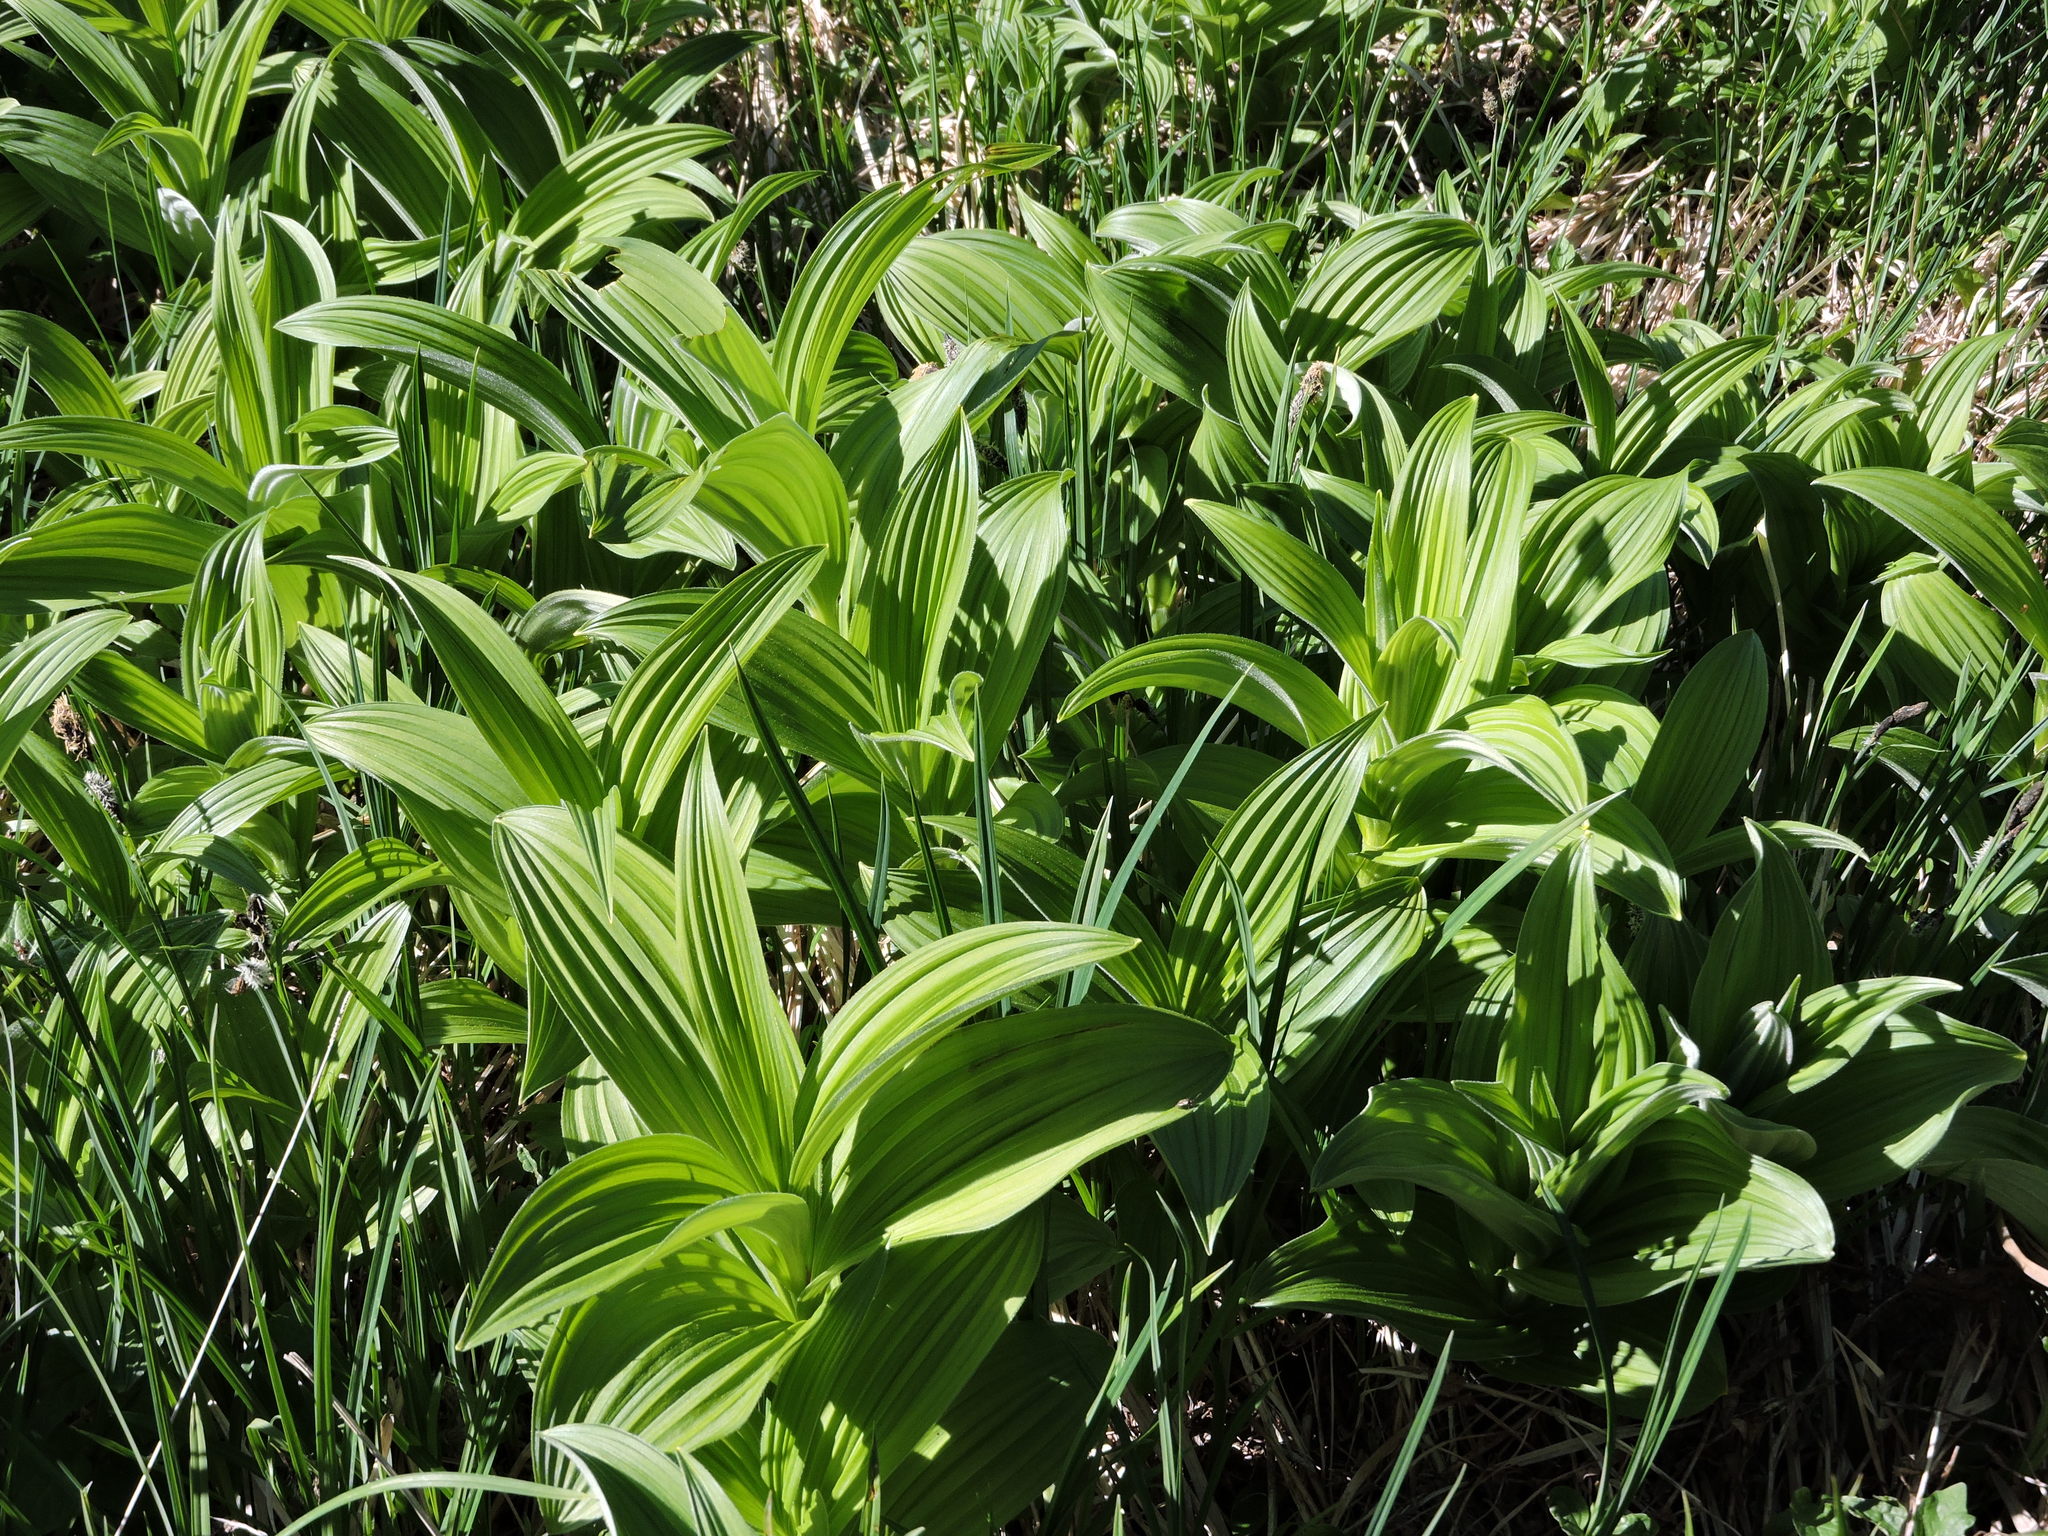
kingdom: Plantae
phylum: Tracheophyta
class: Liliopsida
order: Liliales
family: Melanthiaceae
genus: Veratrum
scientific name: Veratrum viride
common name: American false hellebore
